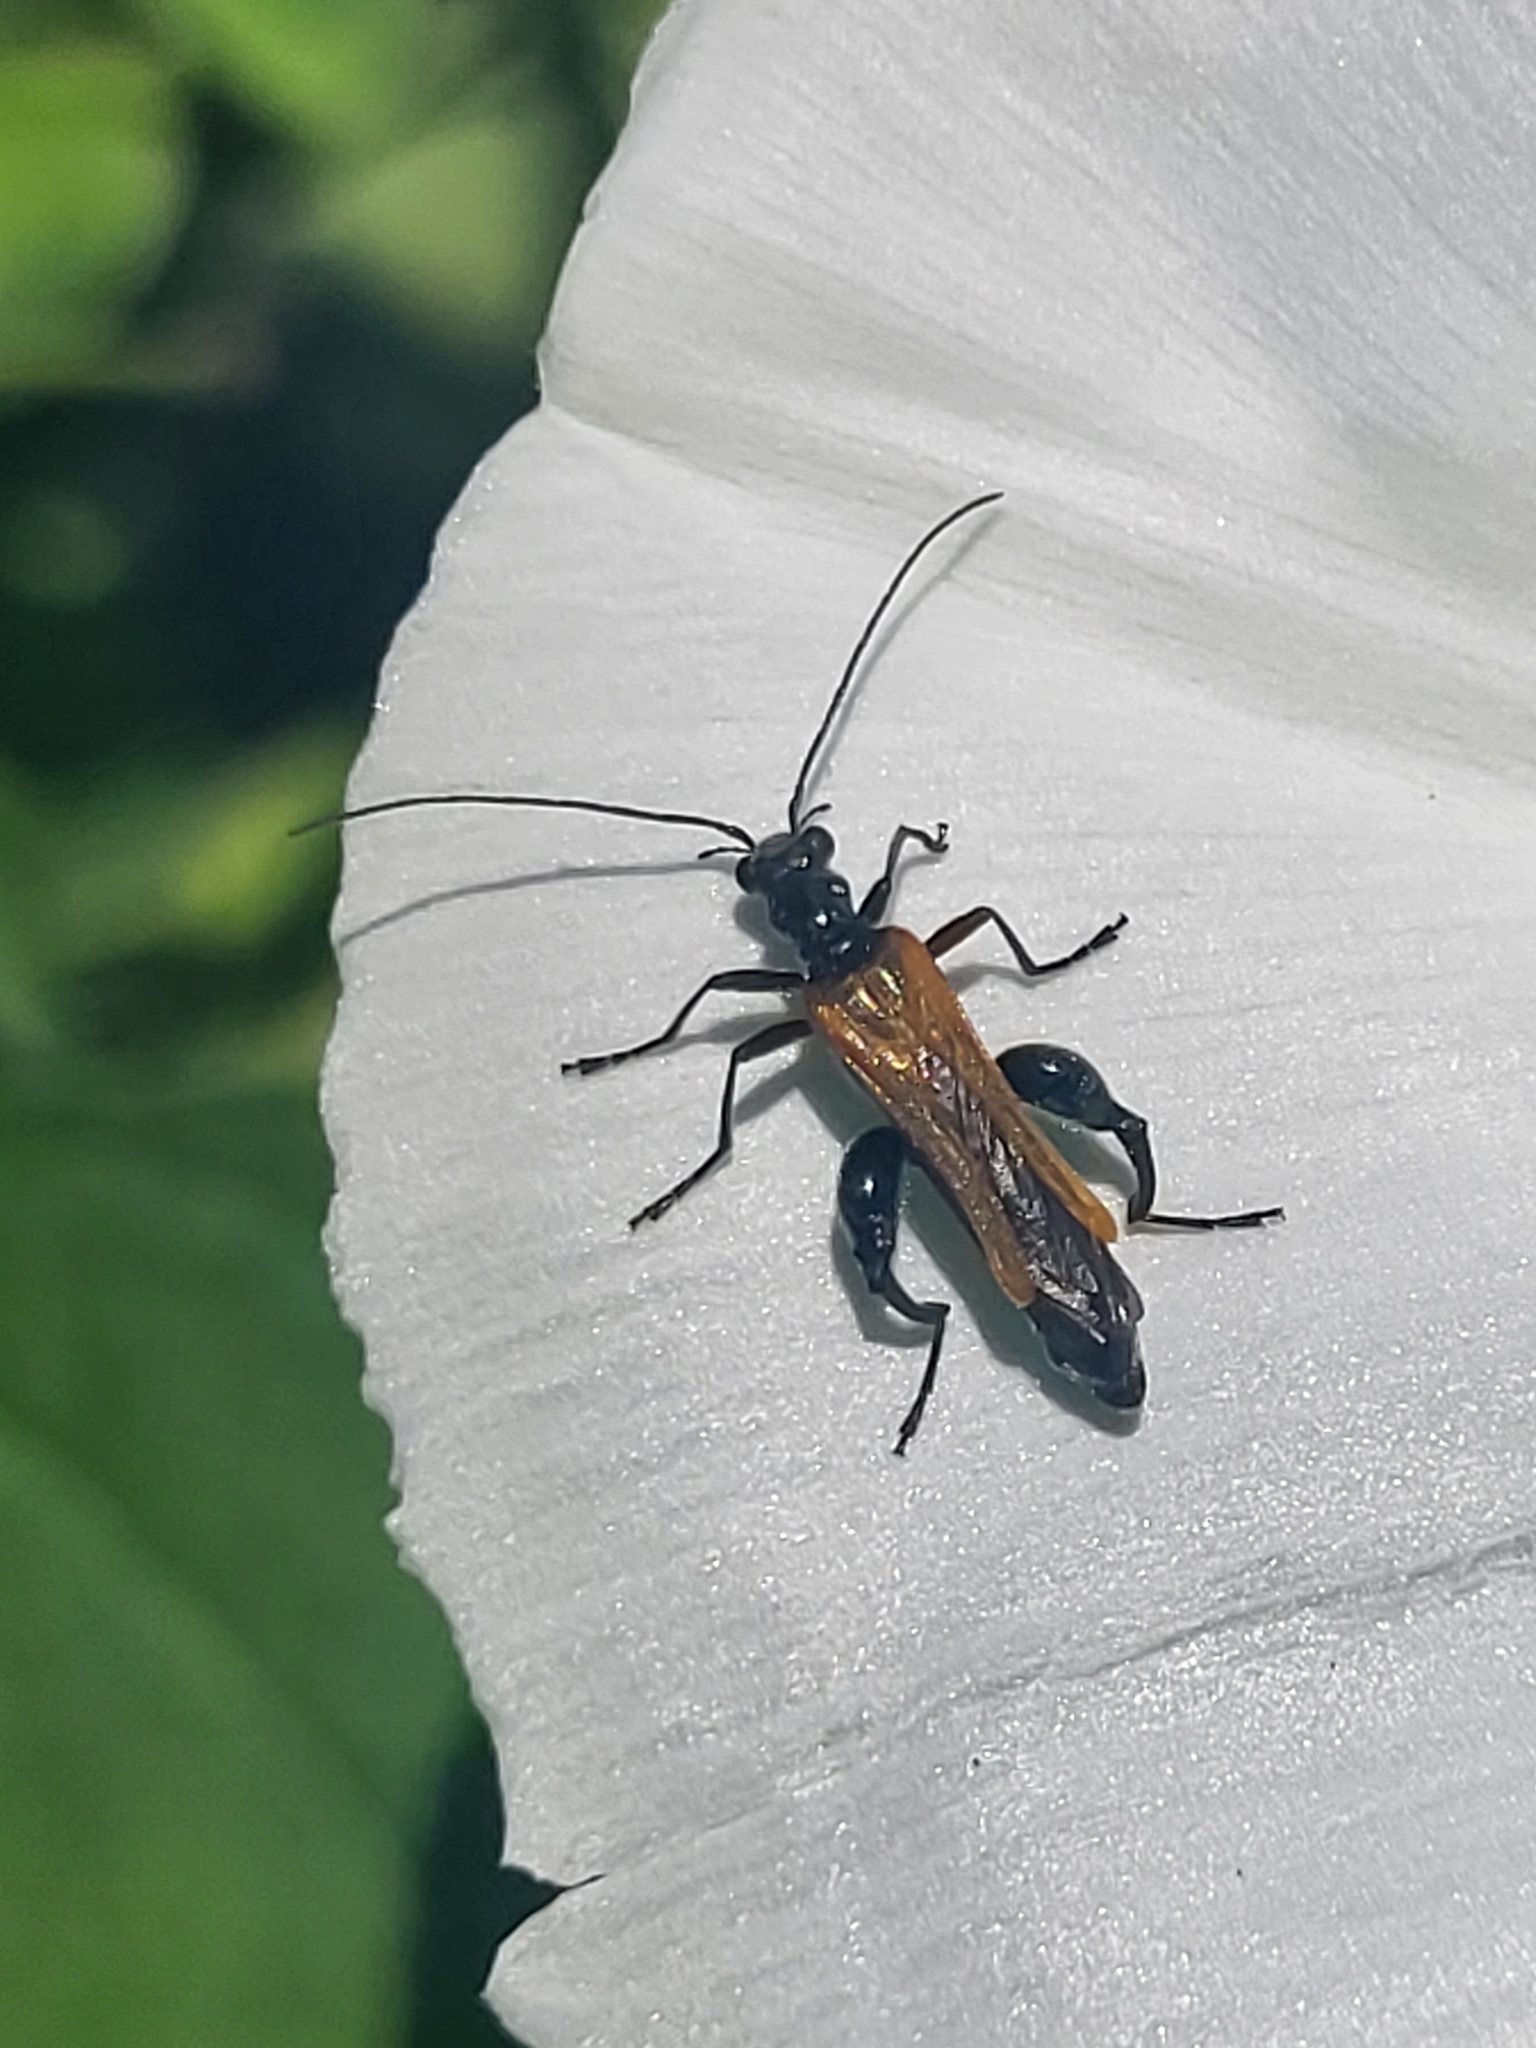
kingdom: Animalia
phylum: Arthropoda
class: Insecta
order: Coleoptera
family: Oedemeridae
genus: Oedemera
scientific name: Oedemera femorata
